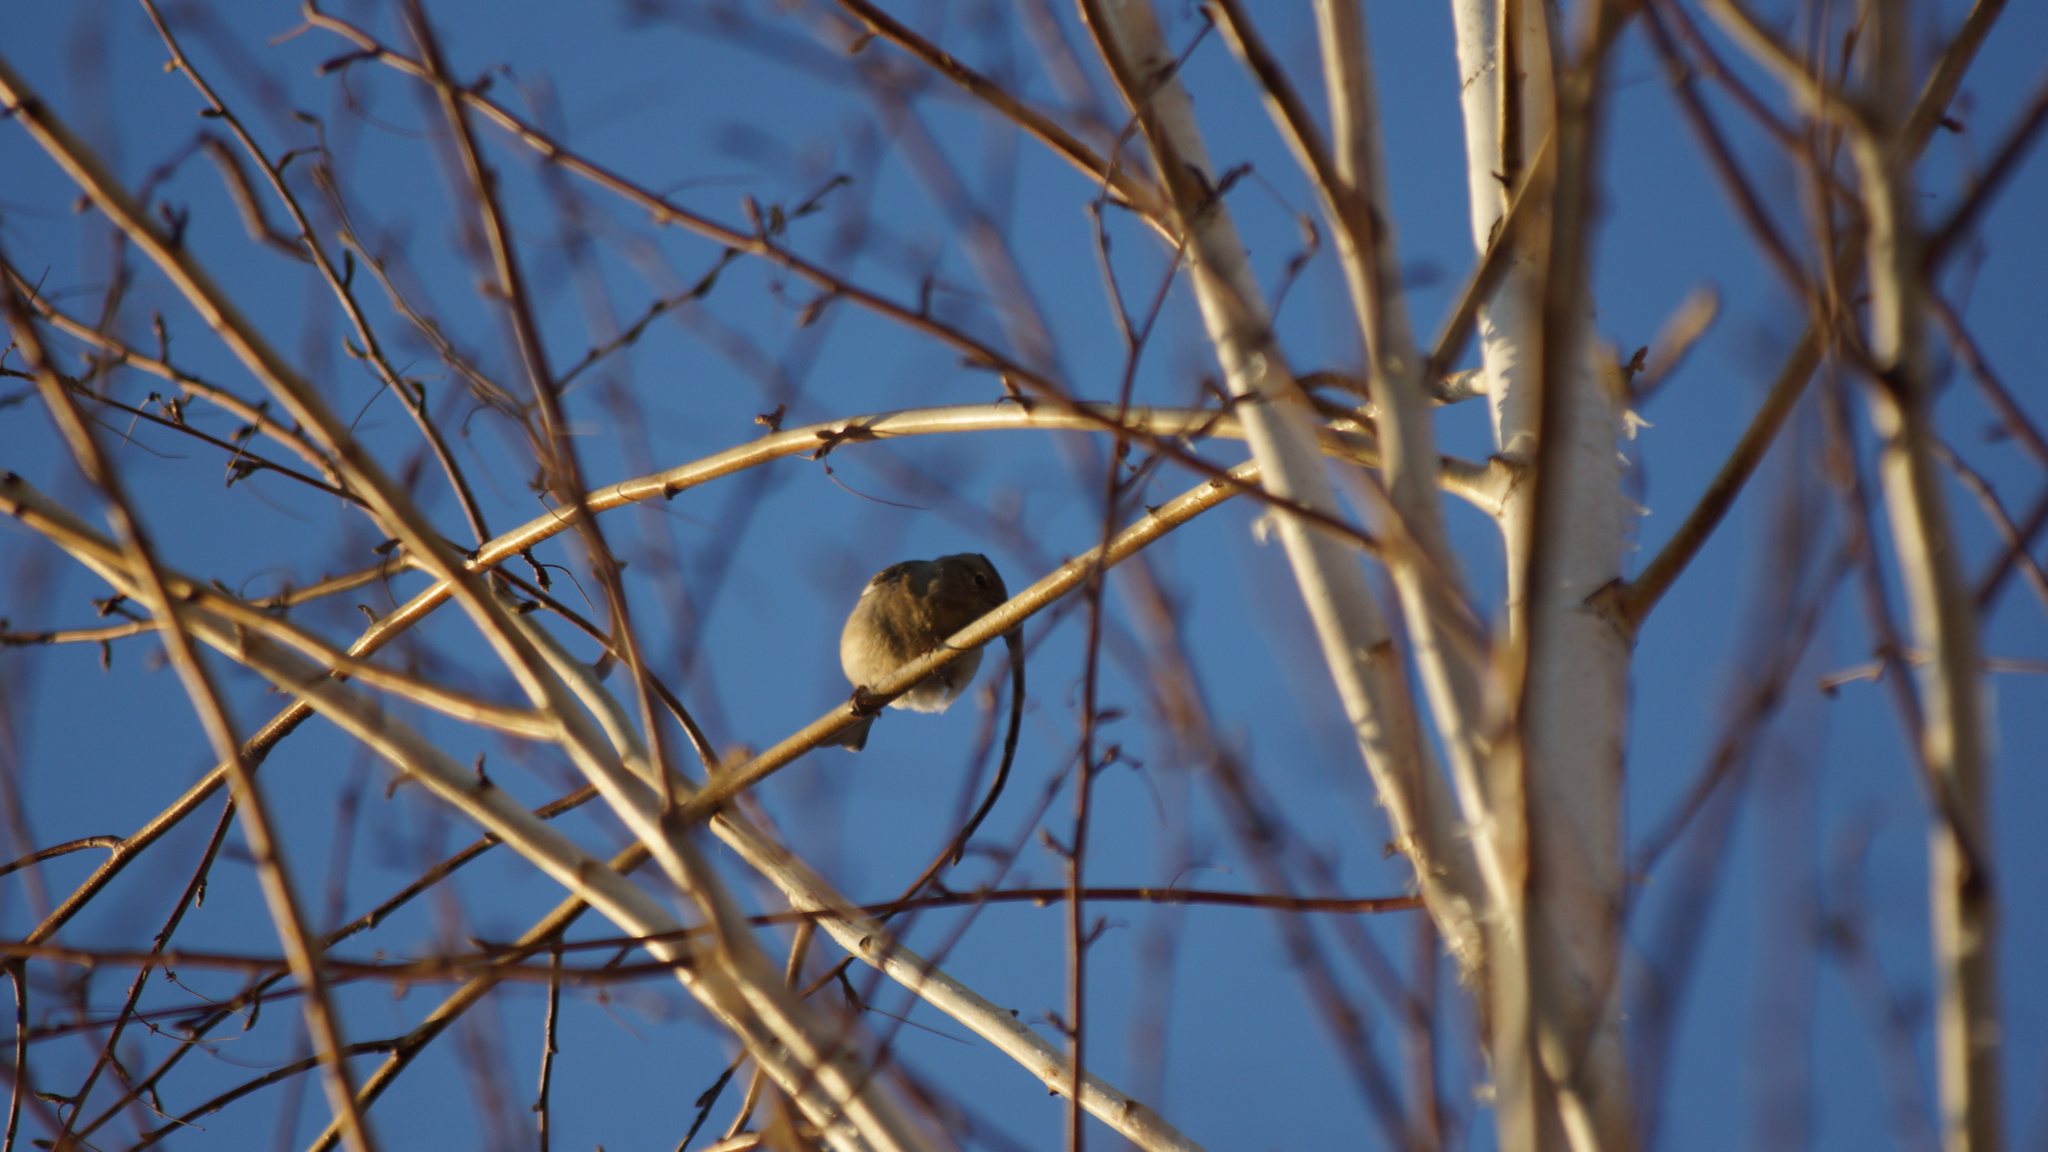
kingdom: Animalia
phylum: Chordata
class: Aves
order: Passeriformes
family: Fringillidae
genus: Fringilla
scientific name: Fringilla coelebs
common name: Common chaffinch
